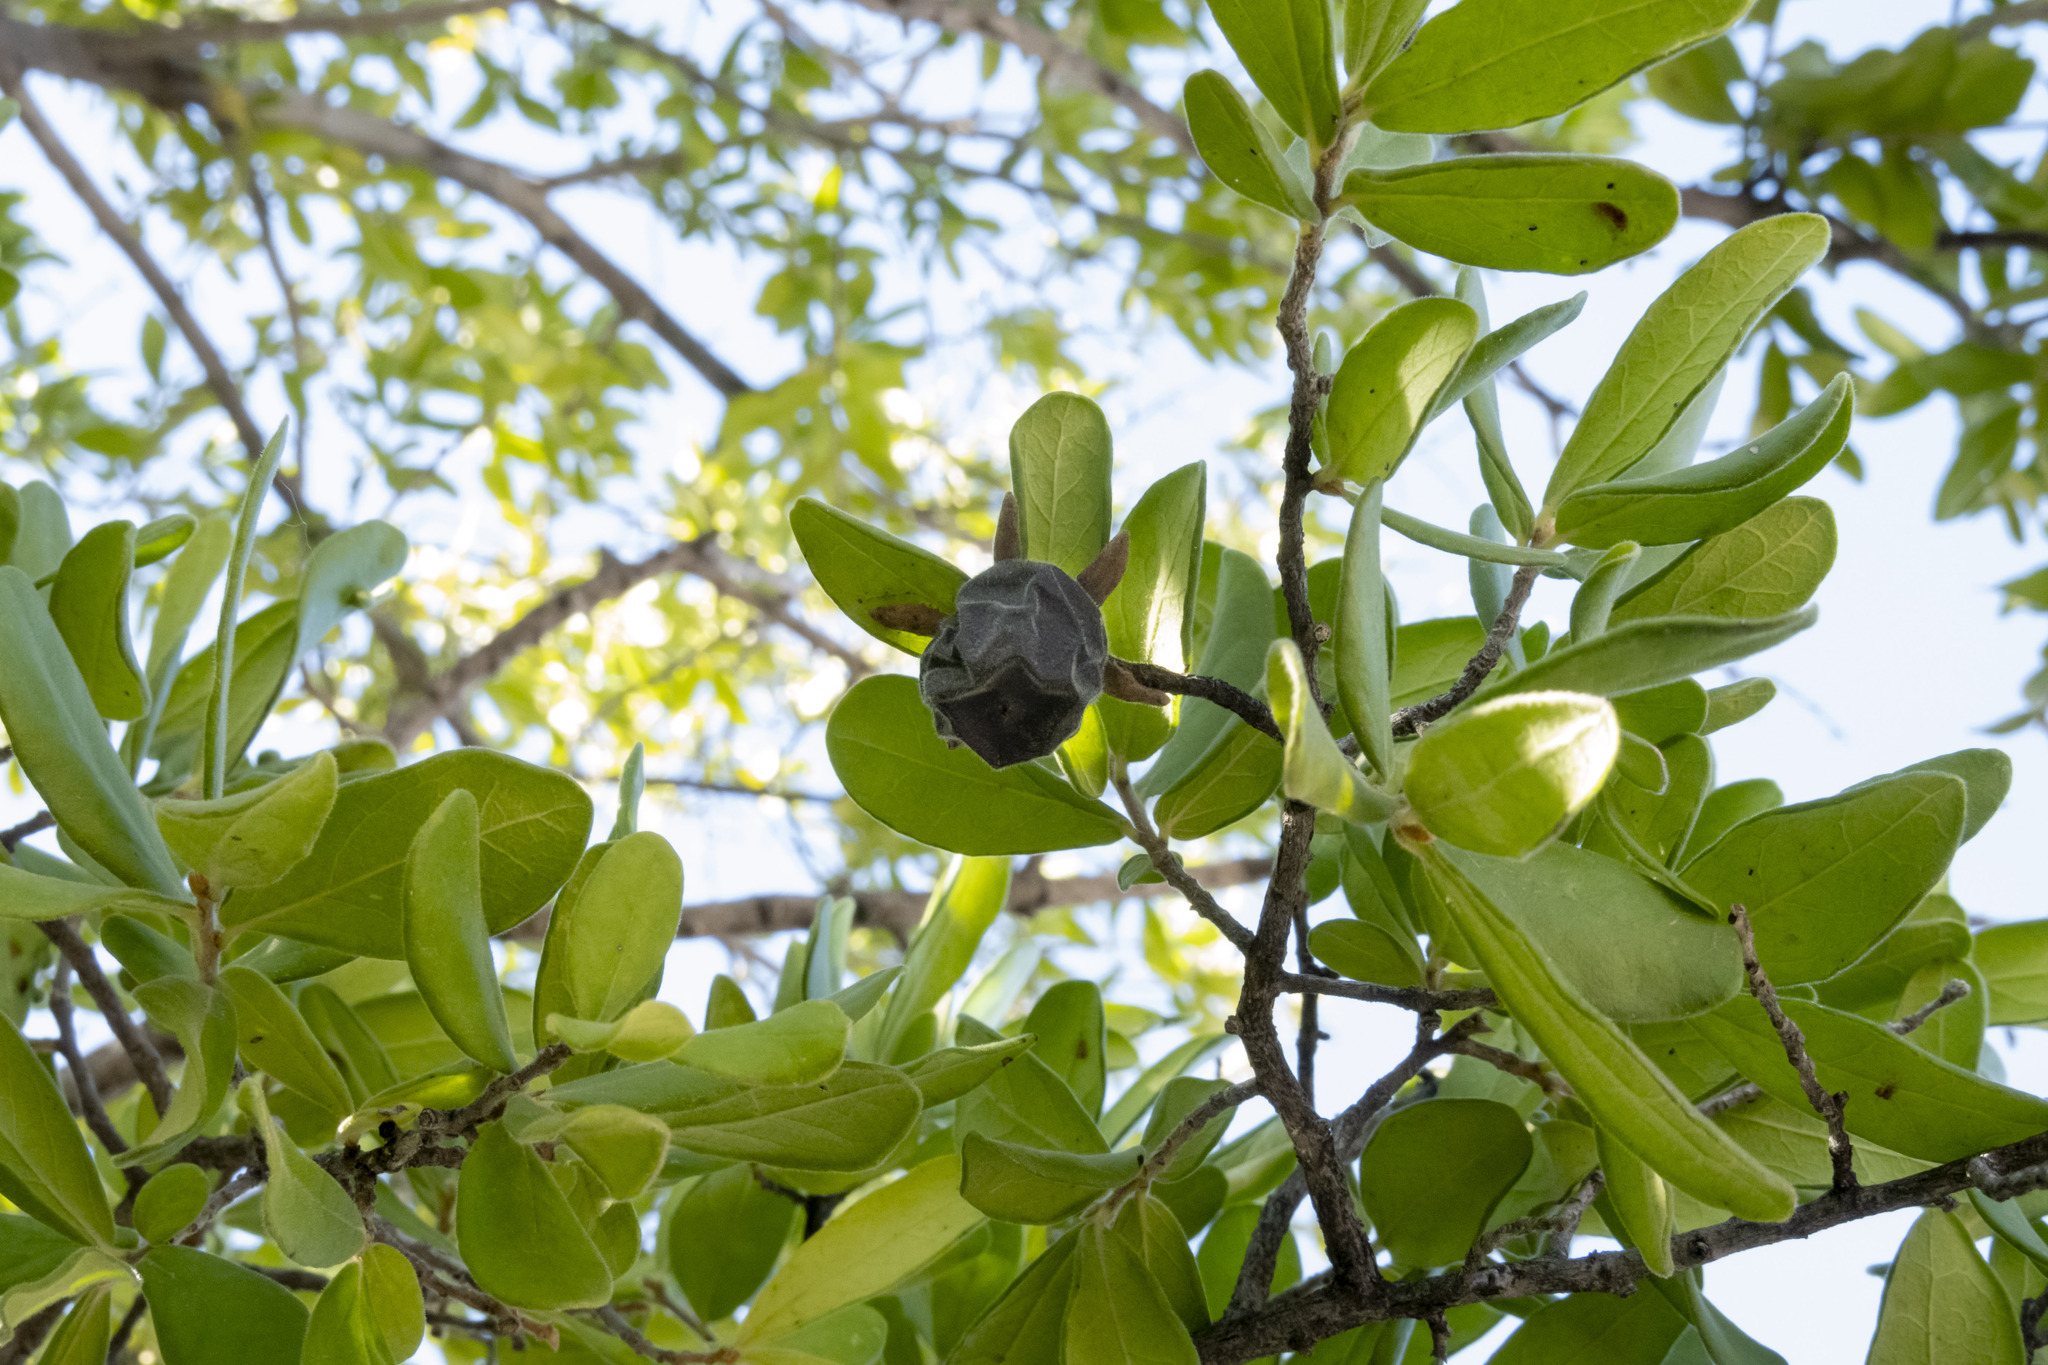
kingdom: Plantae
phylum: Tracheophyta
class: Magnoliopsida
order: Ericales
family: Ebenaceae
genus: Diospyros
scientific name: Diospyros texana
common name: Texas persimmon
